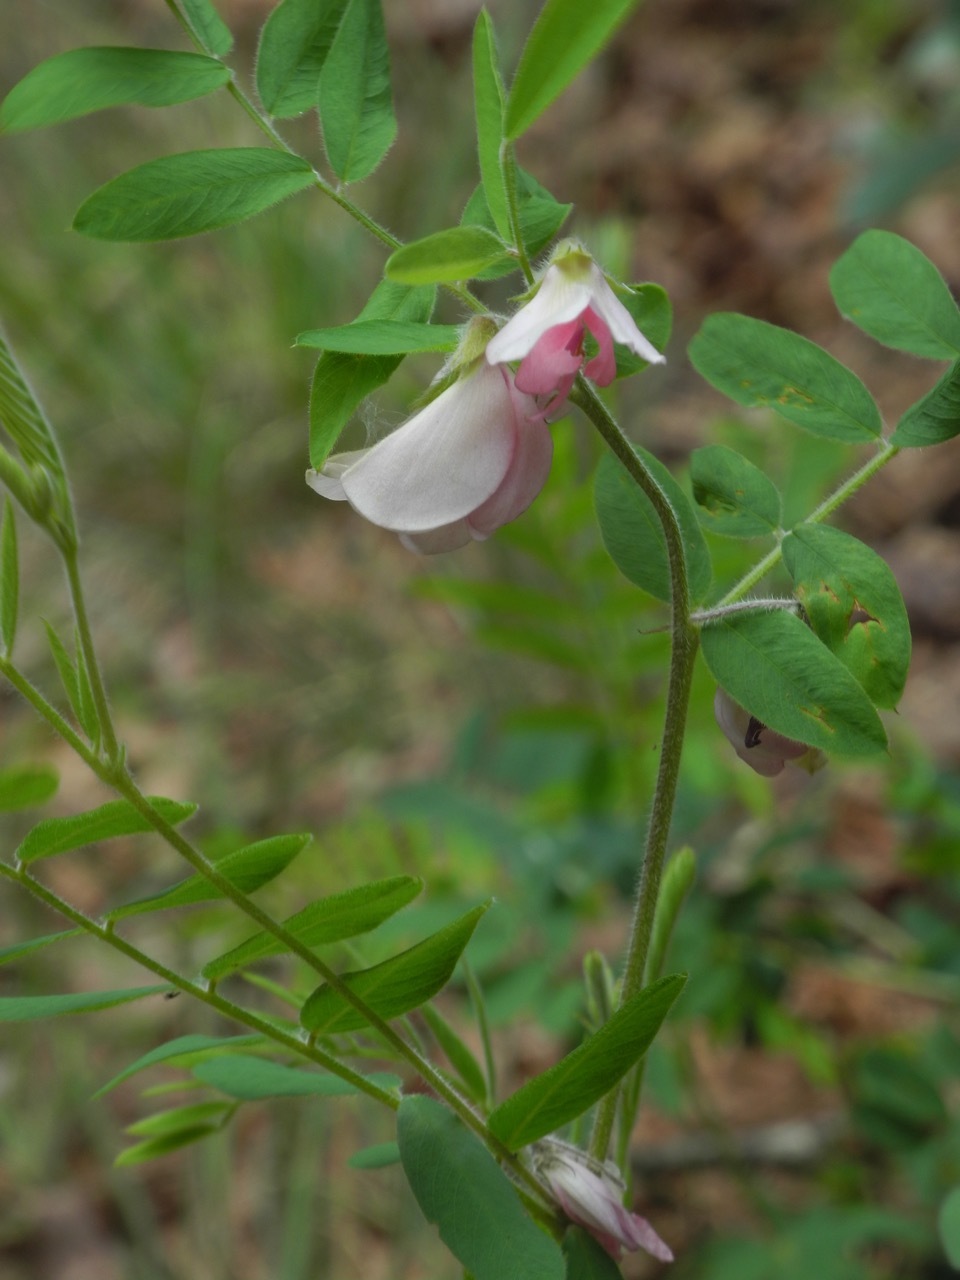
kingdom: Plantae
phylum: Tracheophyta
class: Magnoliopsida
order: Fabales
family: Fabaceae
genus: Tephrosia
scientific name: Tephrosia virginiana
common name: Rabbit-pea
